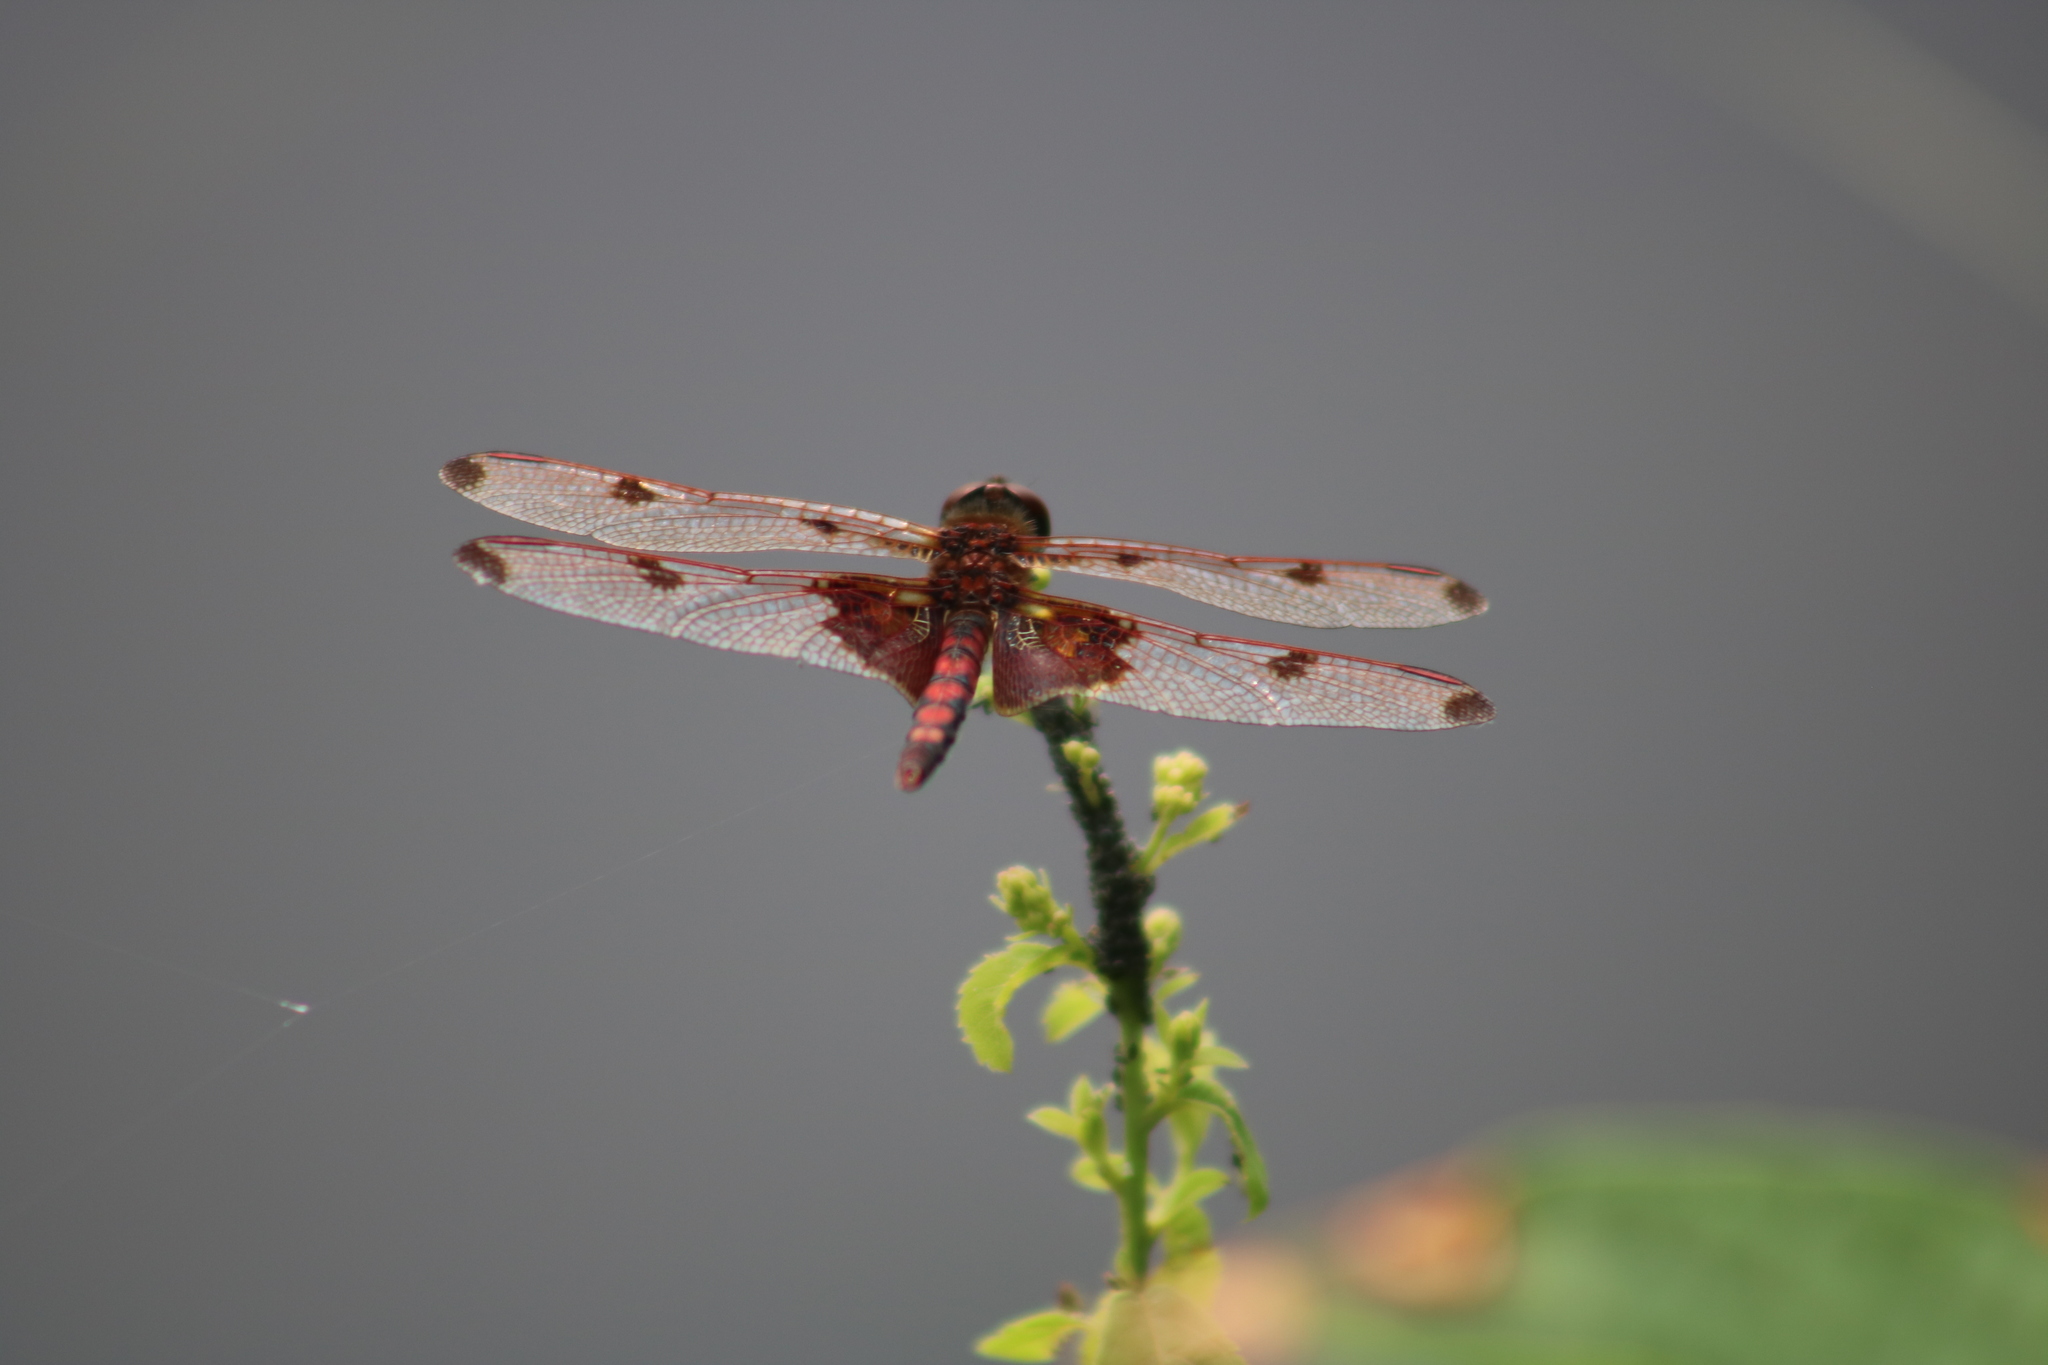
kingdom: Animalia
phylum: Arthropoda
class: Insecta
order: Odonata
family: Libellulidae
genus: Celithemis
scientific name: Celithemis elisa
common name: Calico pennant
